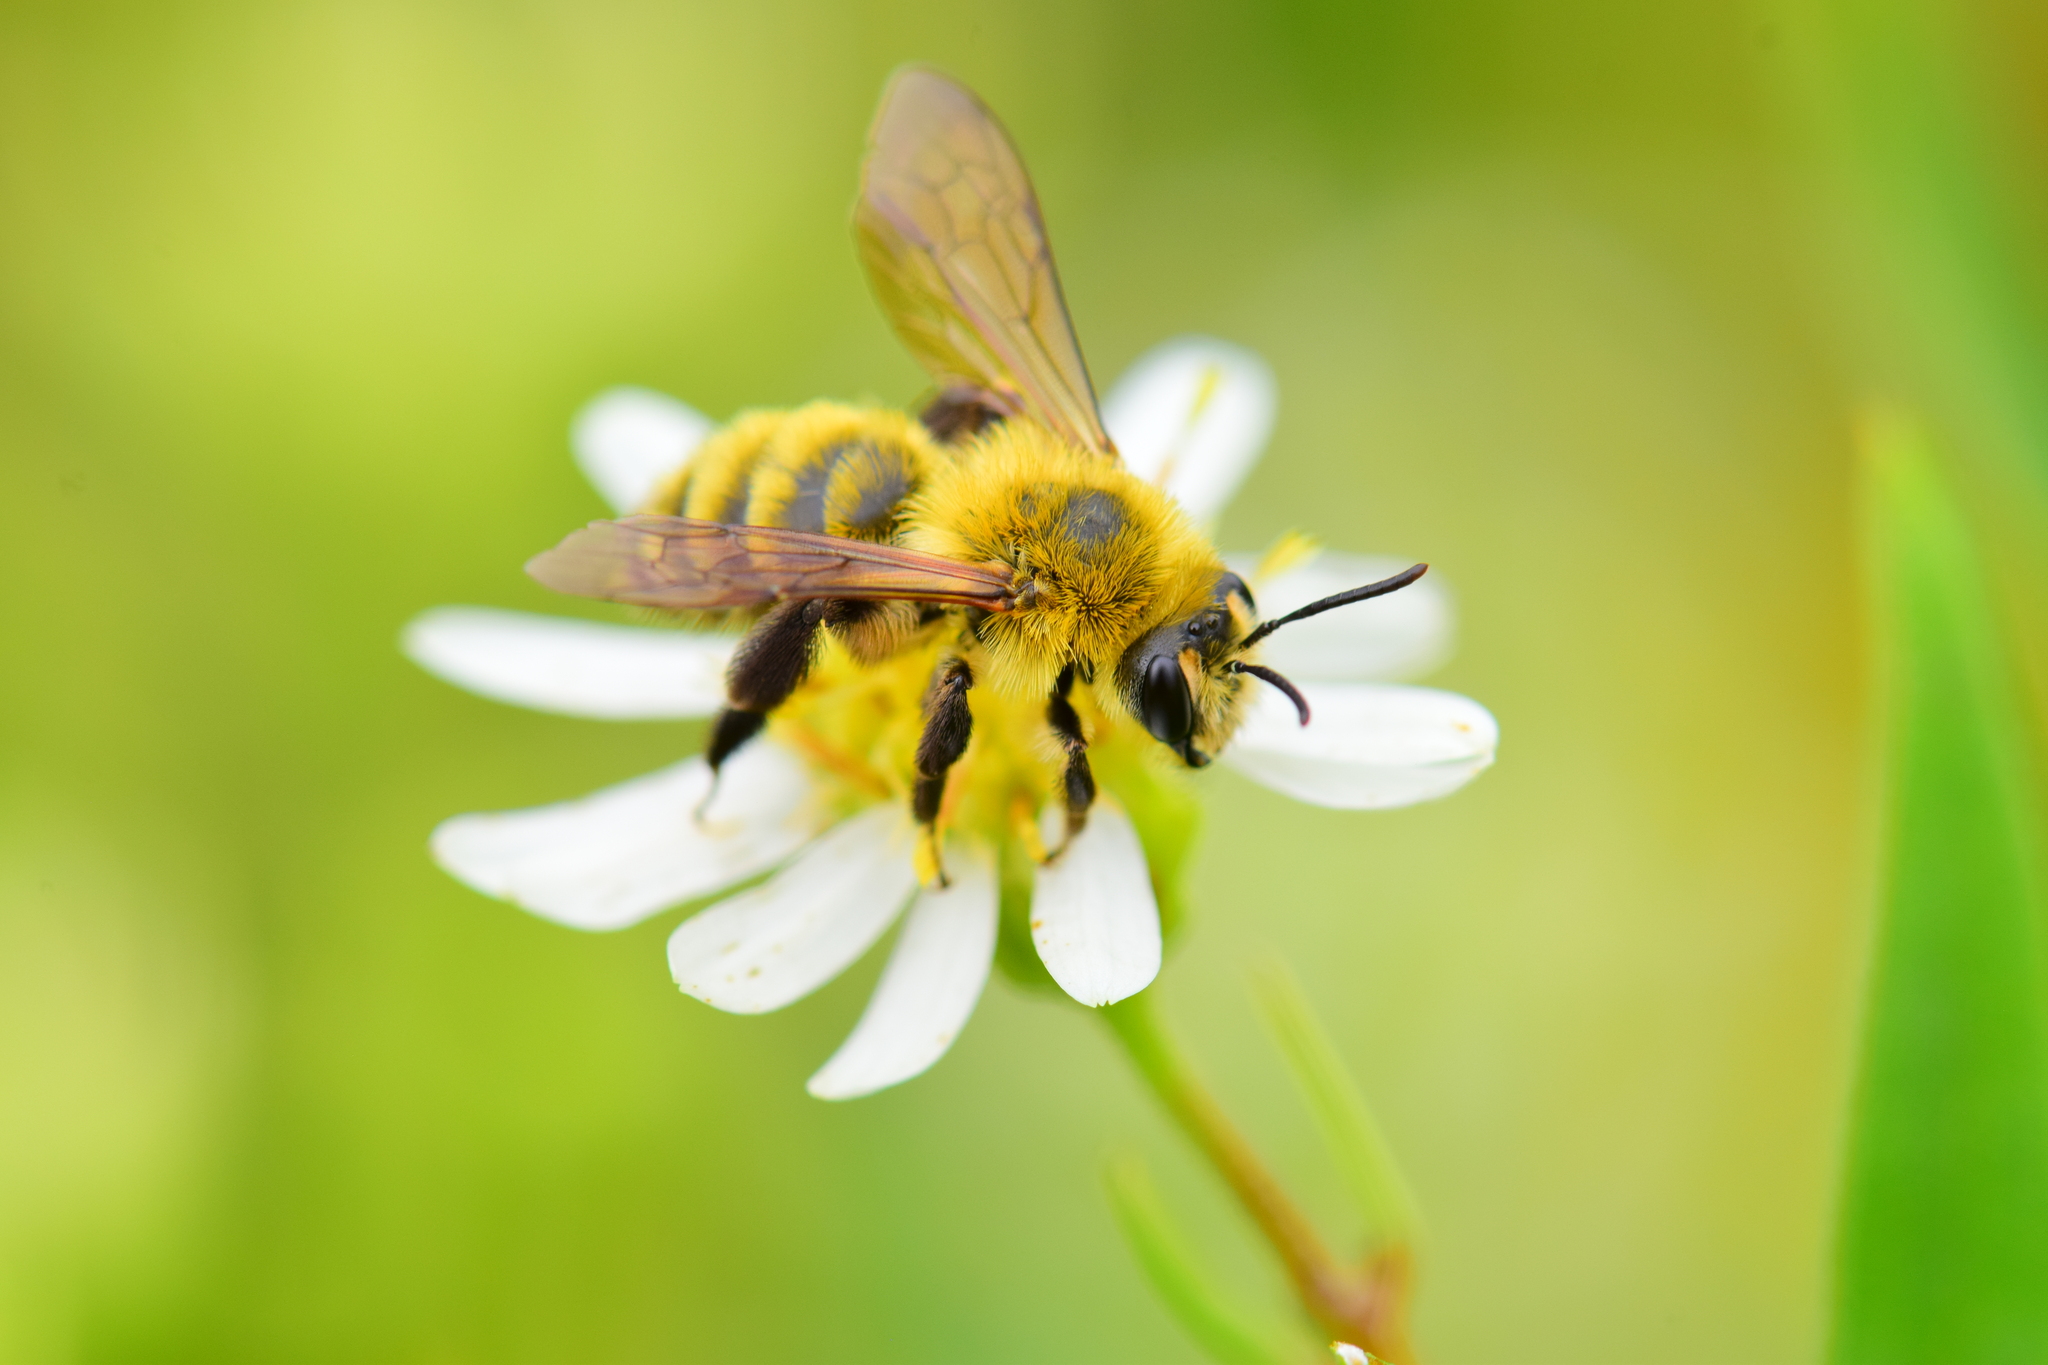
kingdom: Animalia
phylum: Arthropoda
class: Insecta
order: Hymenoptera
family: Andrenidae
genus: Andrena
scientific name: Andrena hirticincta
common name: Hairy-banded mining bee
